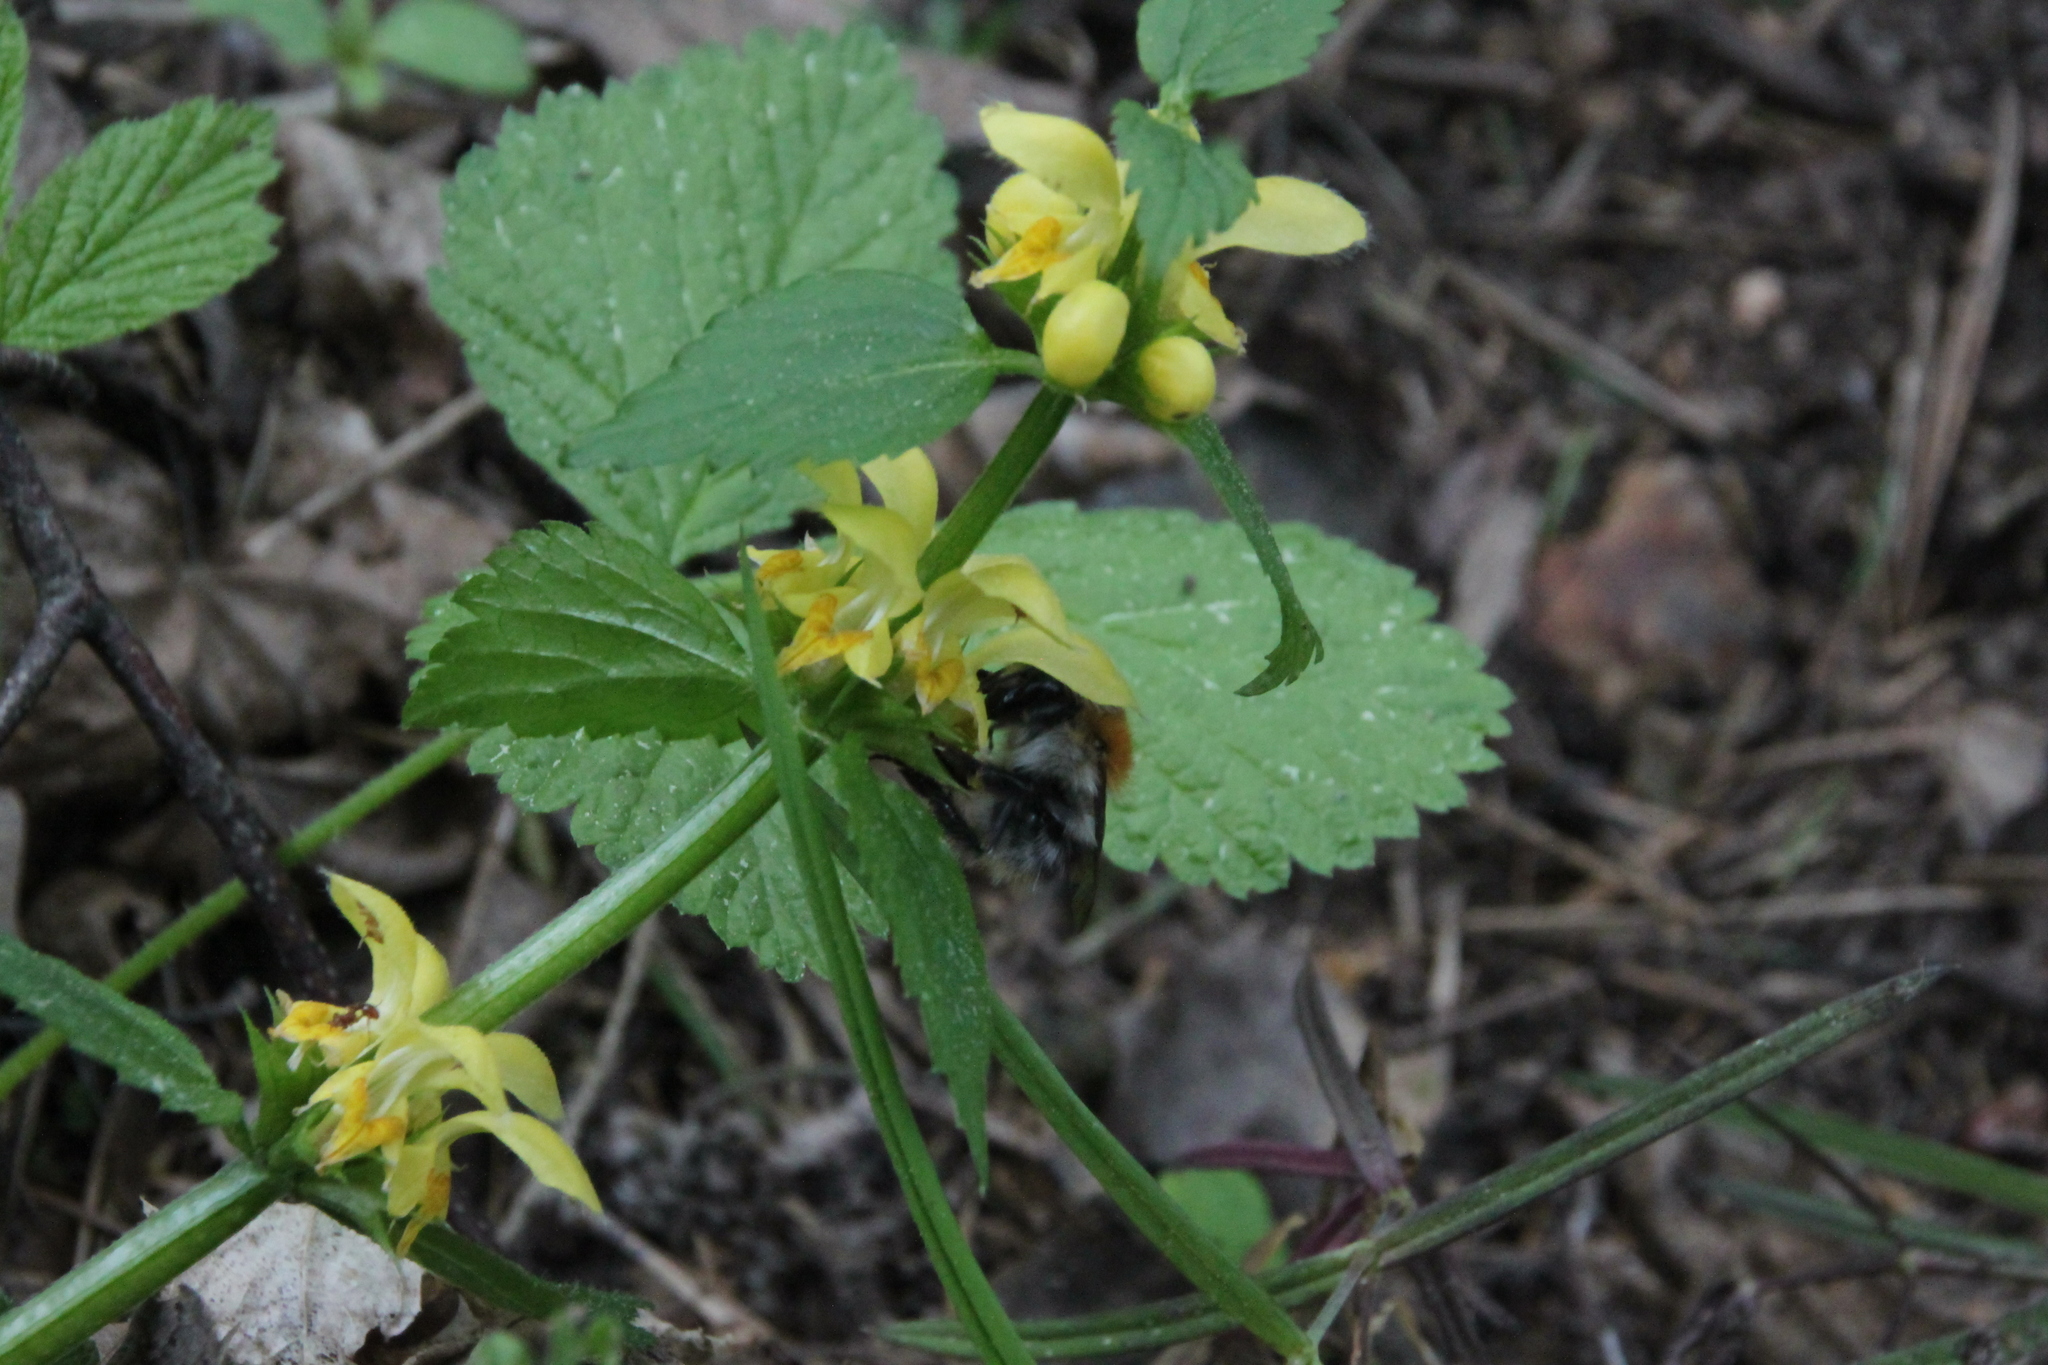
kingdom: Plantae
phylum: Tracheophyta
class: Magnoliopsida
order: Lamiales
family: Lamiaceae
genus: Lamium
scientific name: Lamium galeobdolon
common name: Yellow archangel
